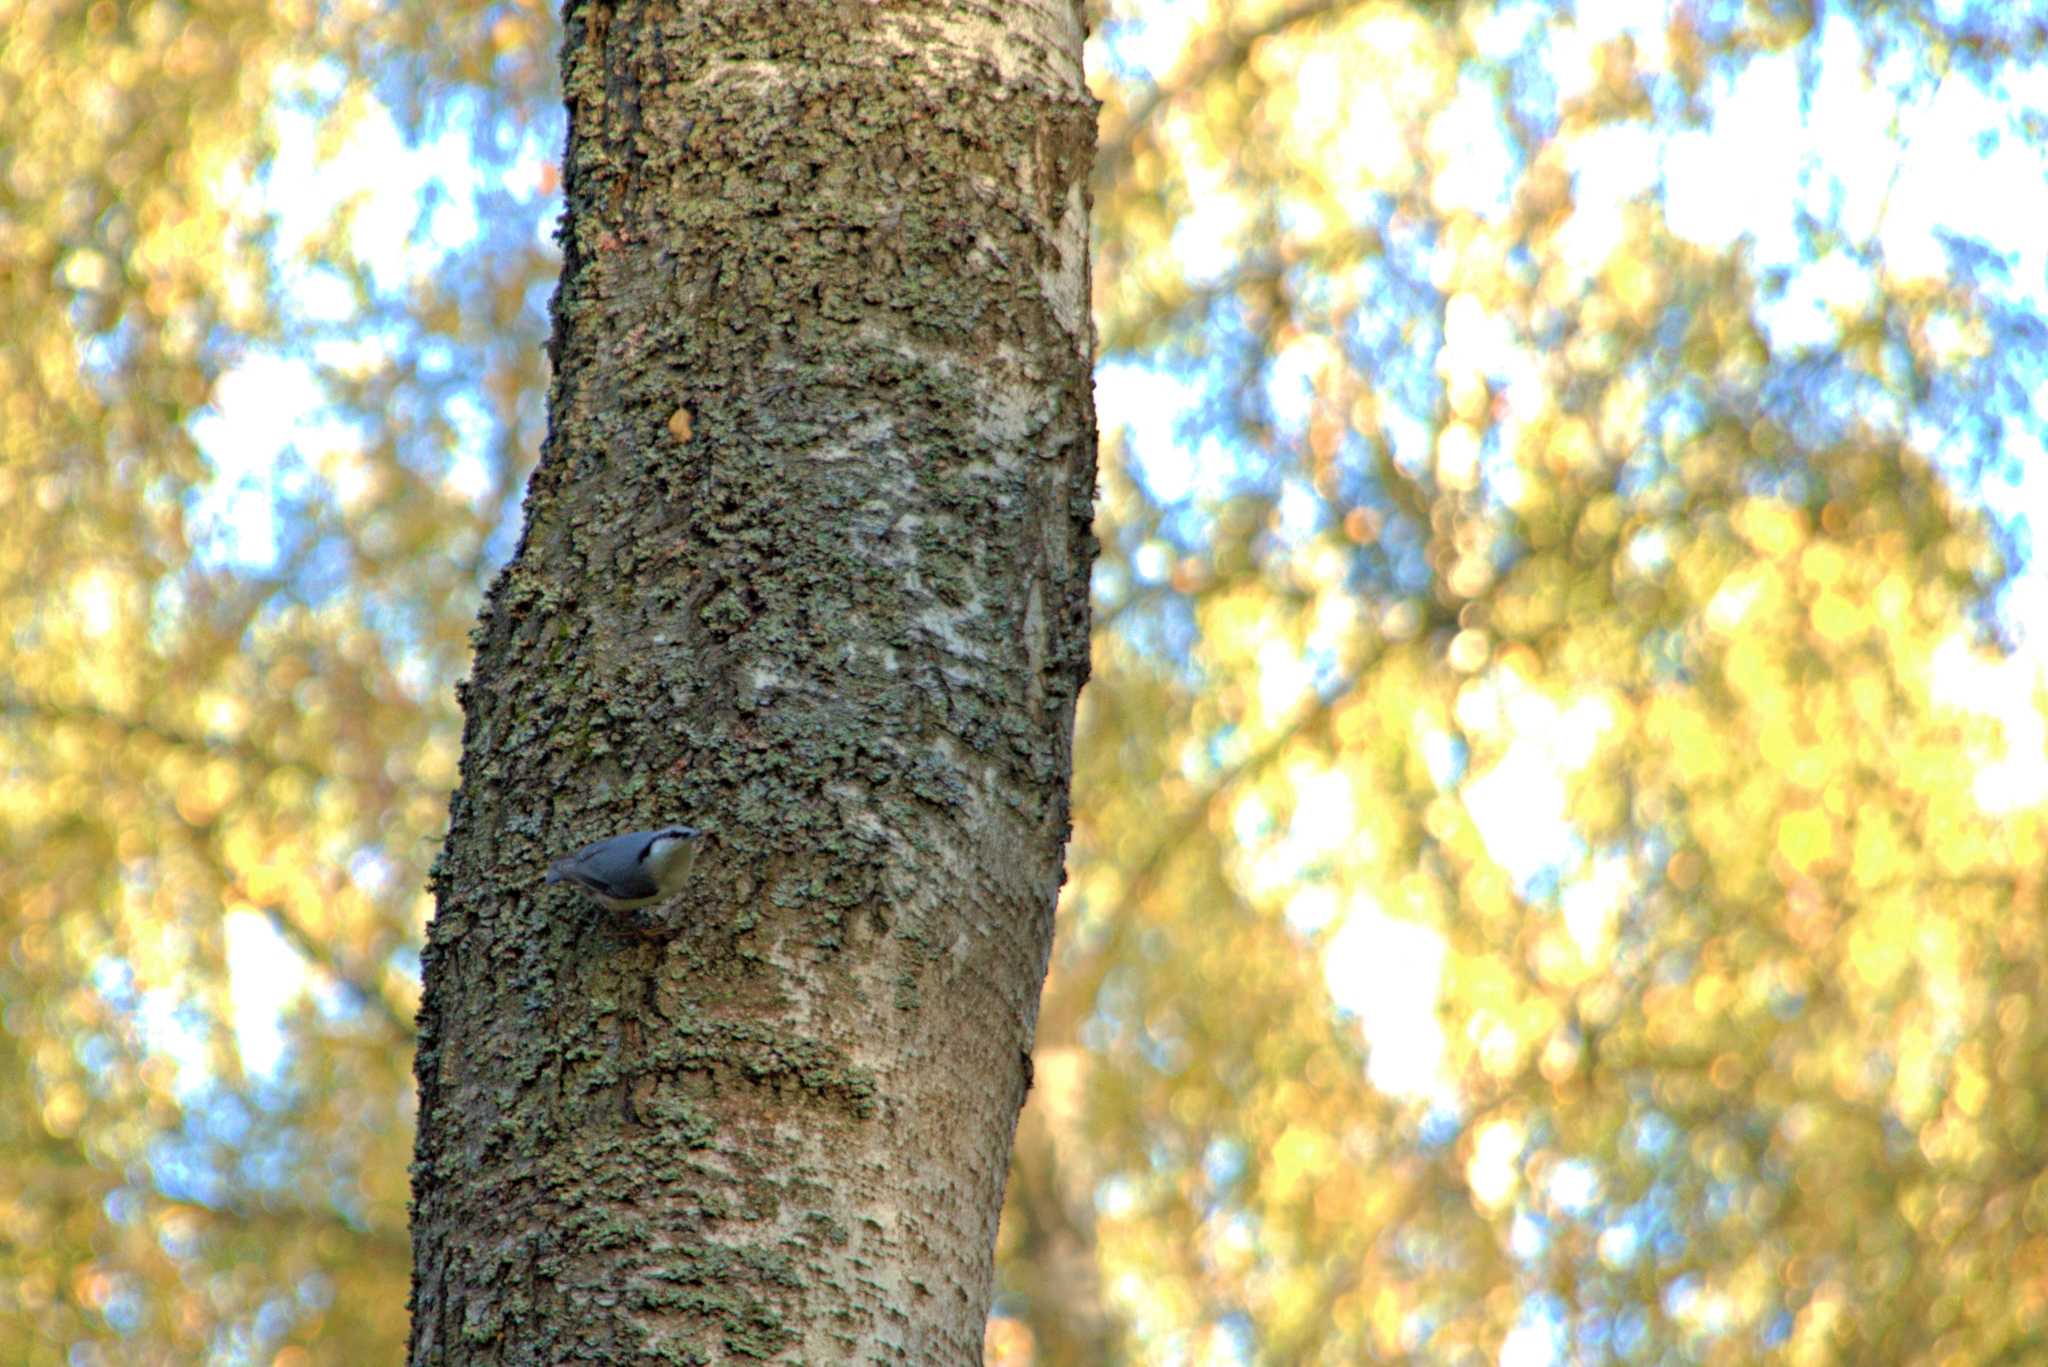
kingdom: Animalia
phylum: Chordata
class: Aves
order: Passeriformes
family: Sittidae
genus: Sitta
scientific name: Sitta europaea
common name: Eurasian nuthatch
